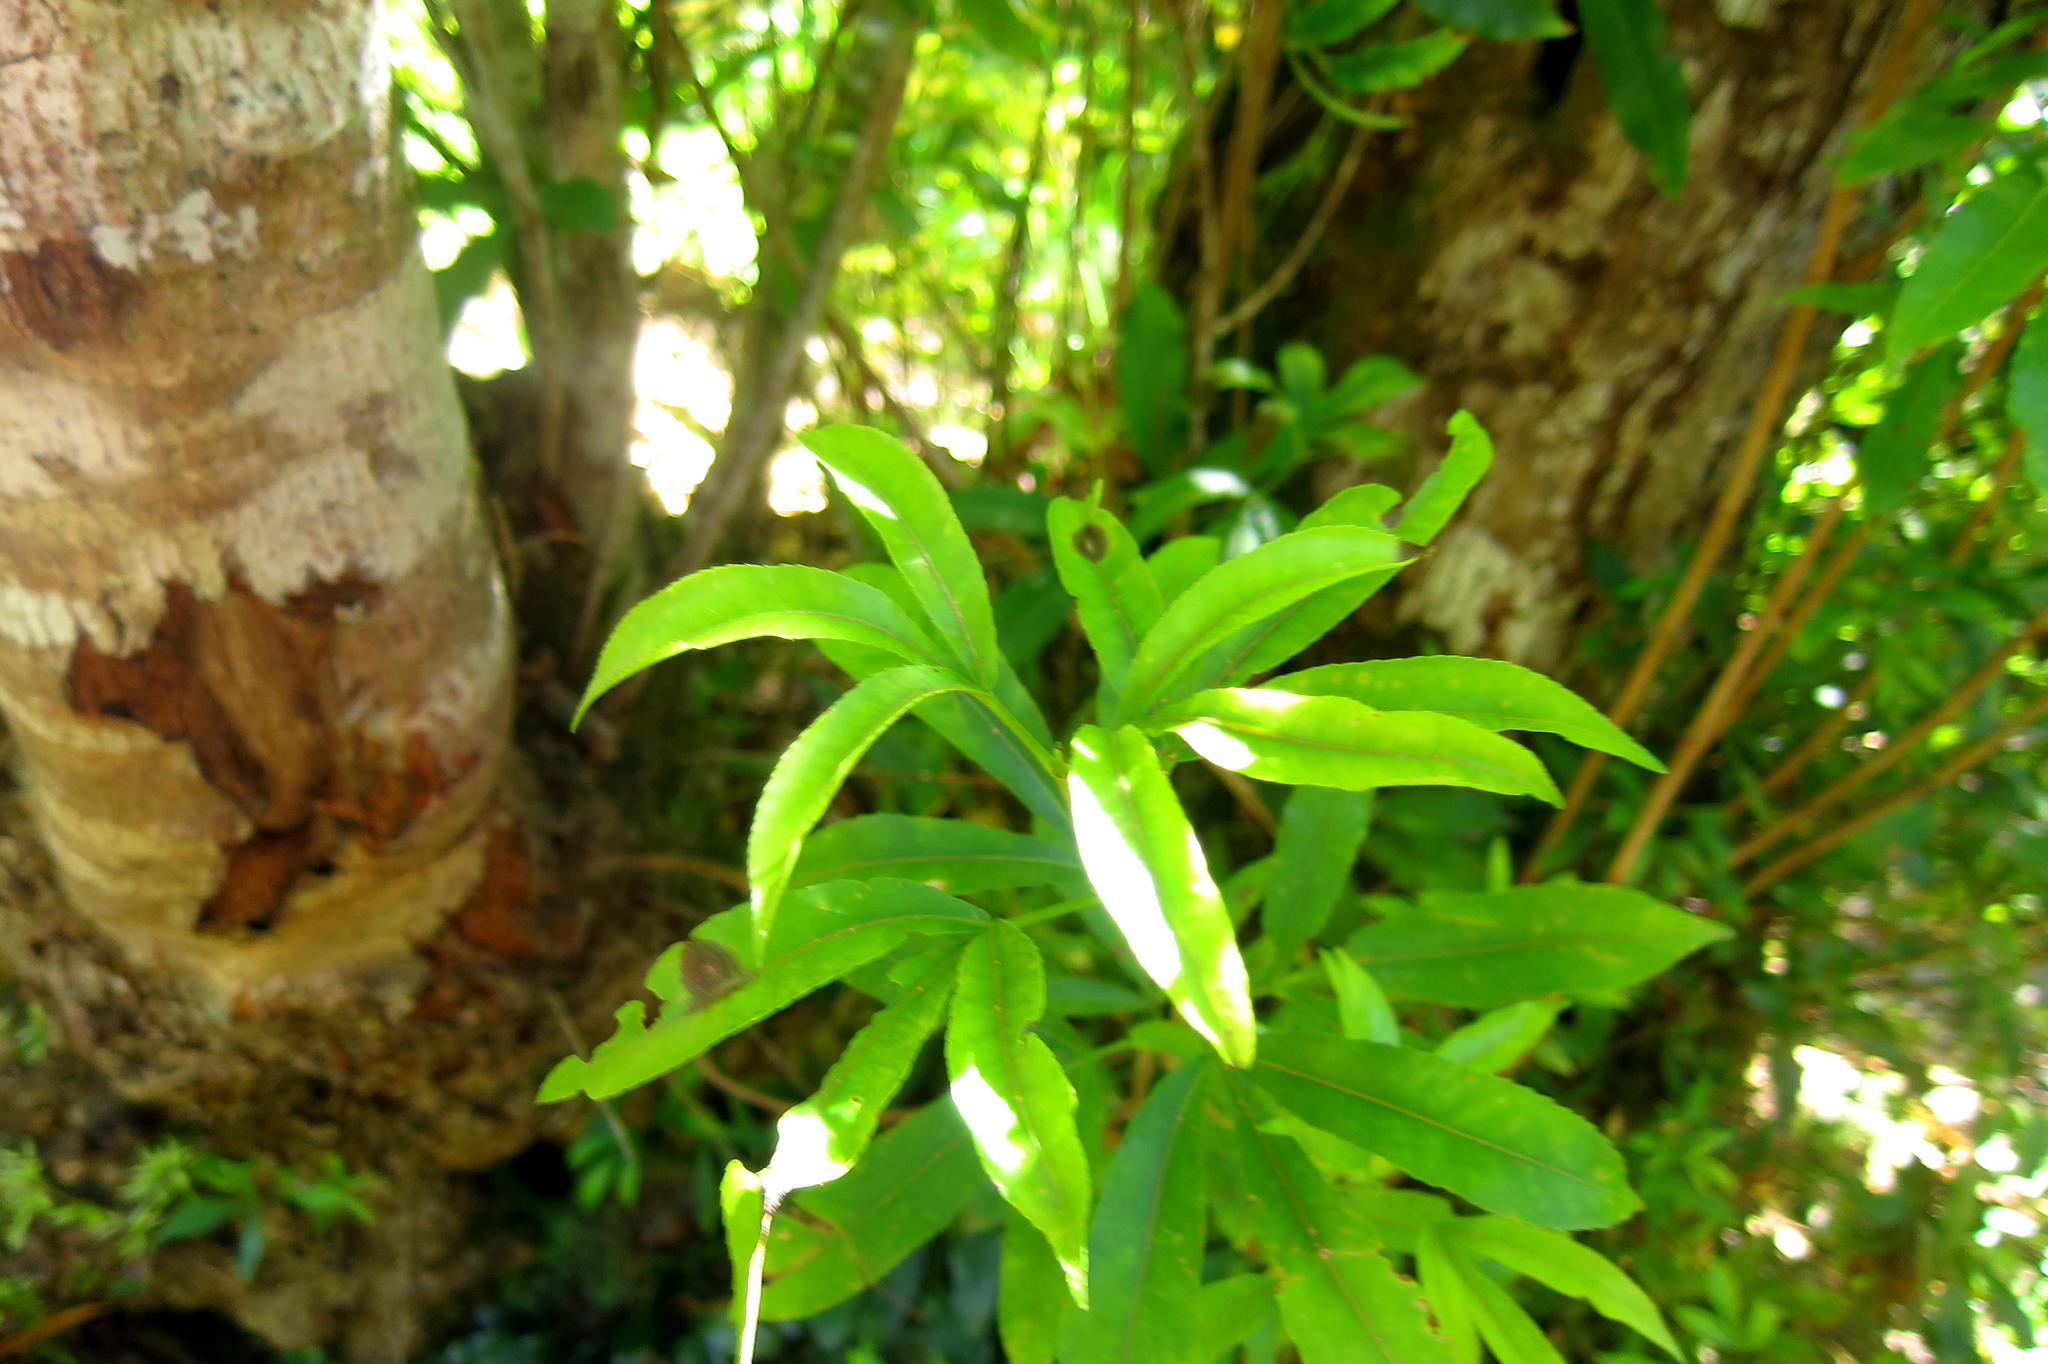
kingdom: Plantae
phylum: Tracheophyta
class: Magnoliopsida
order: Oxalidales
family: Cunoniaceae
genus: Platylophus
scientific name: Platylophus trifoliatus
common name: White alder
